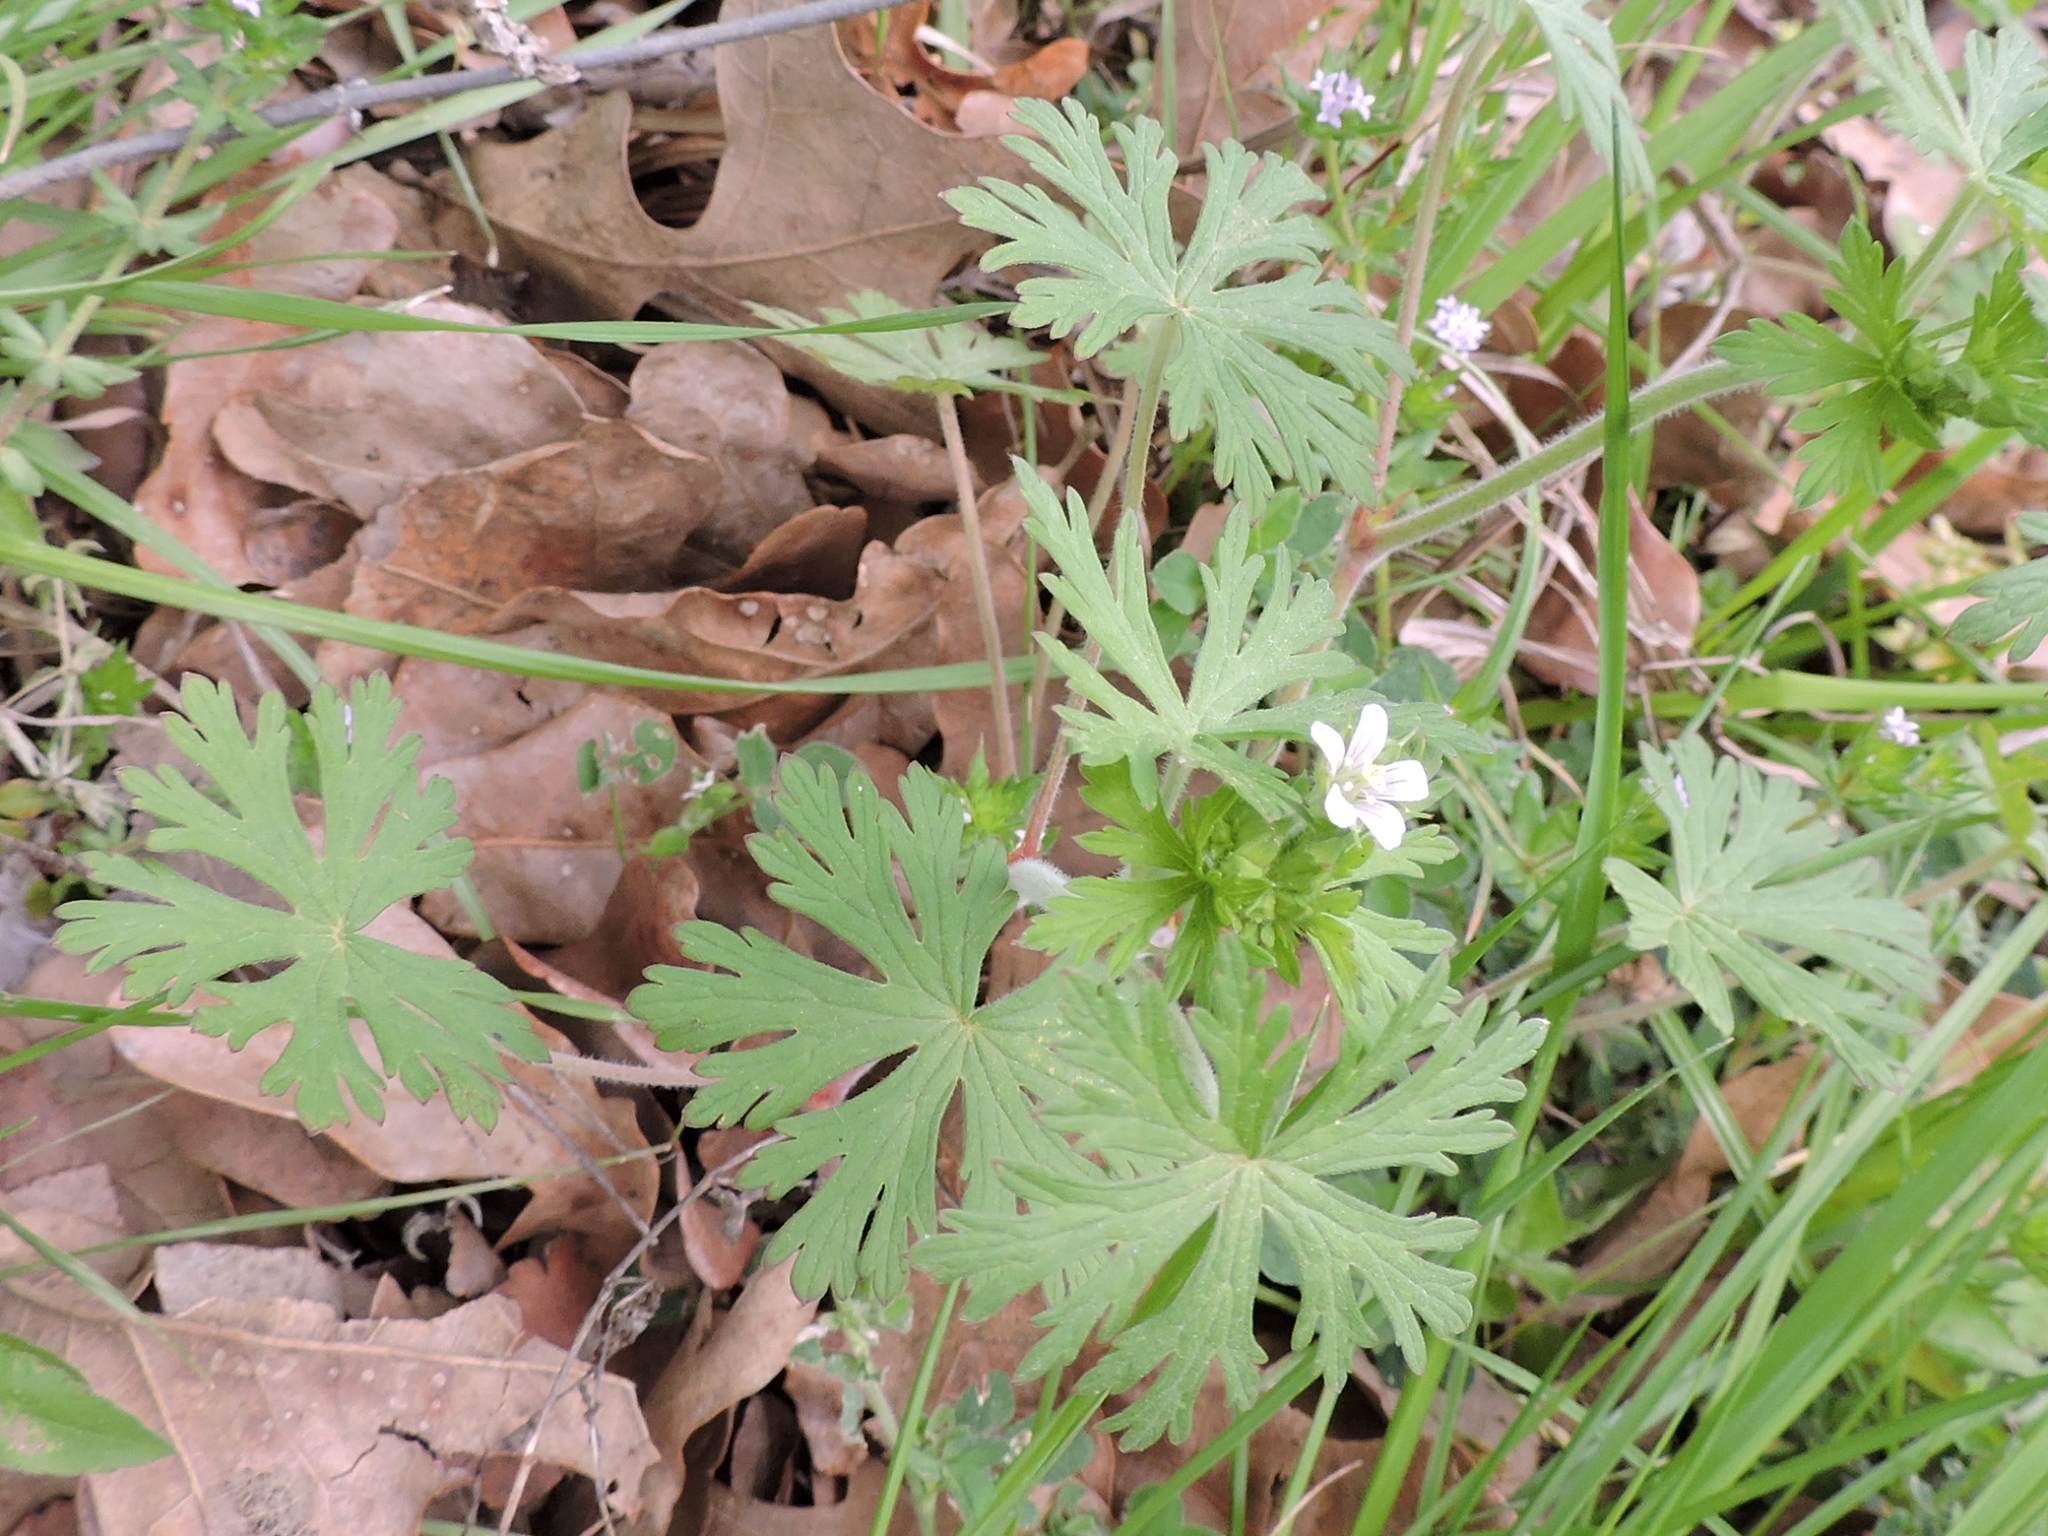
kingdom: Plantae
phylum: Tracheophyta
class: Magnoliopsida
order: Geraniales
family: Geraniaceae
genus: Geranium
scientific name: Geranium carolinianum
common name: Carolina crane's-bill
